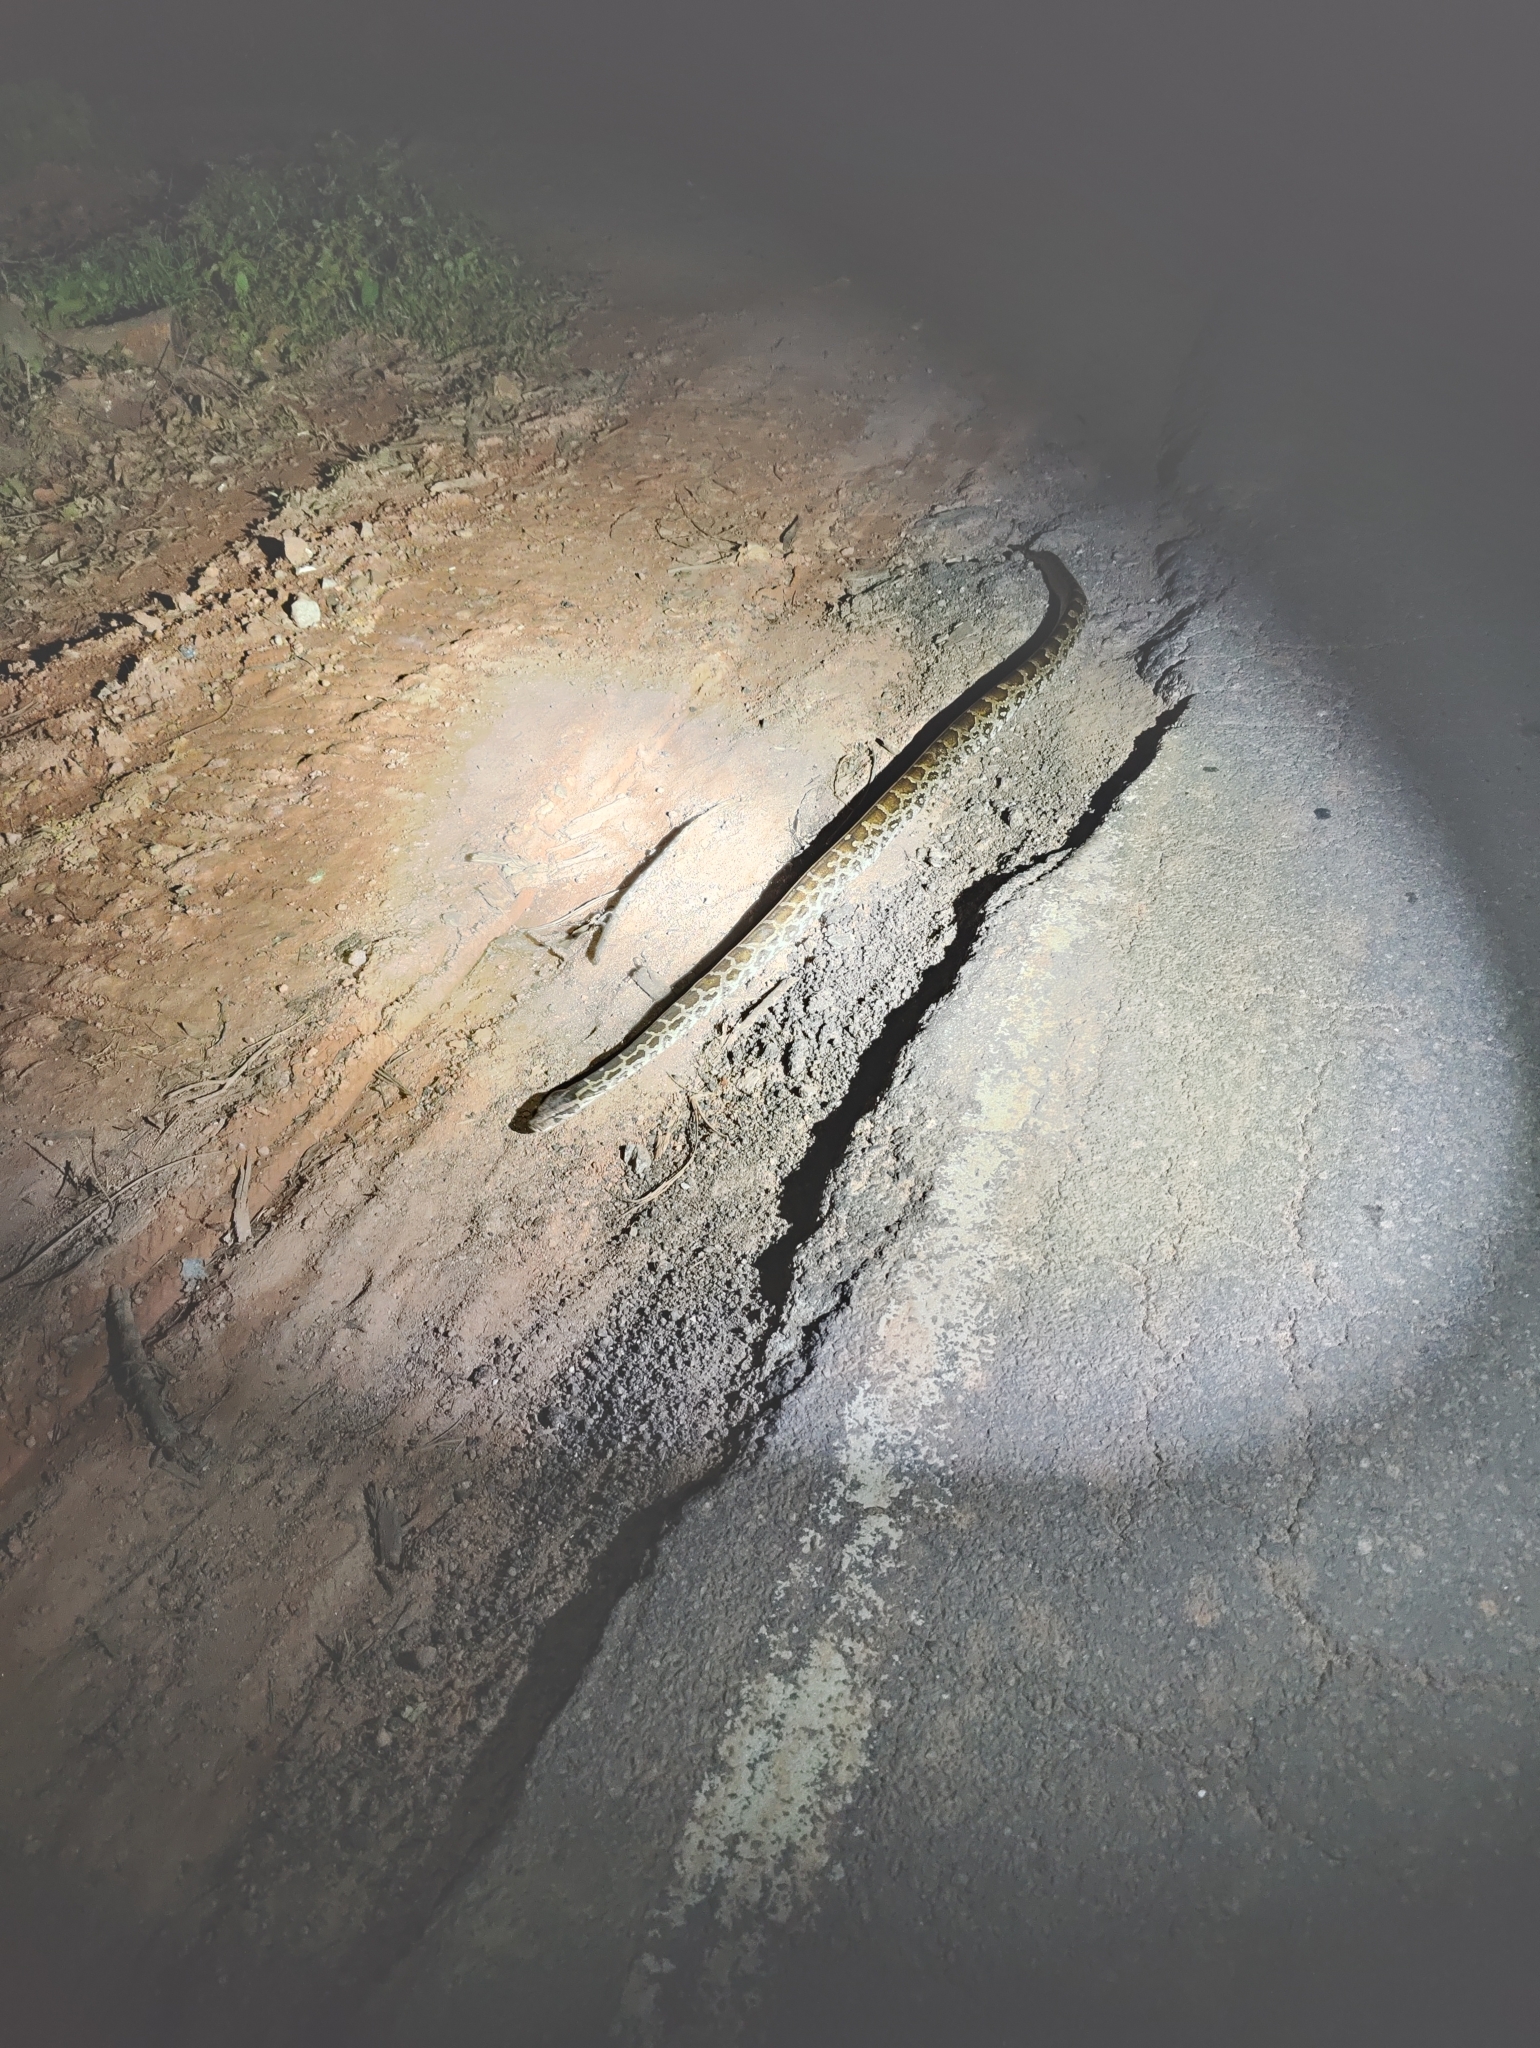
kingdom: Animalia
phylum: Chordata
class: Squamata
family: Pythonidae
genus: Python
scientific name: Python molurus
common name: Indian rock python
